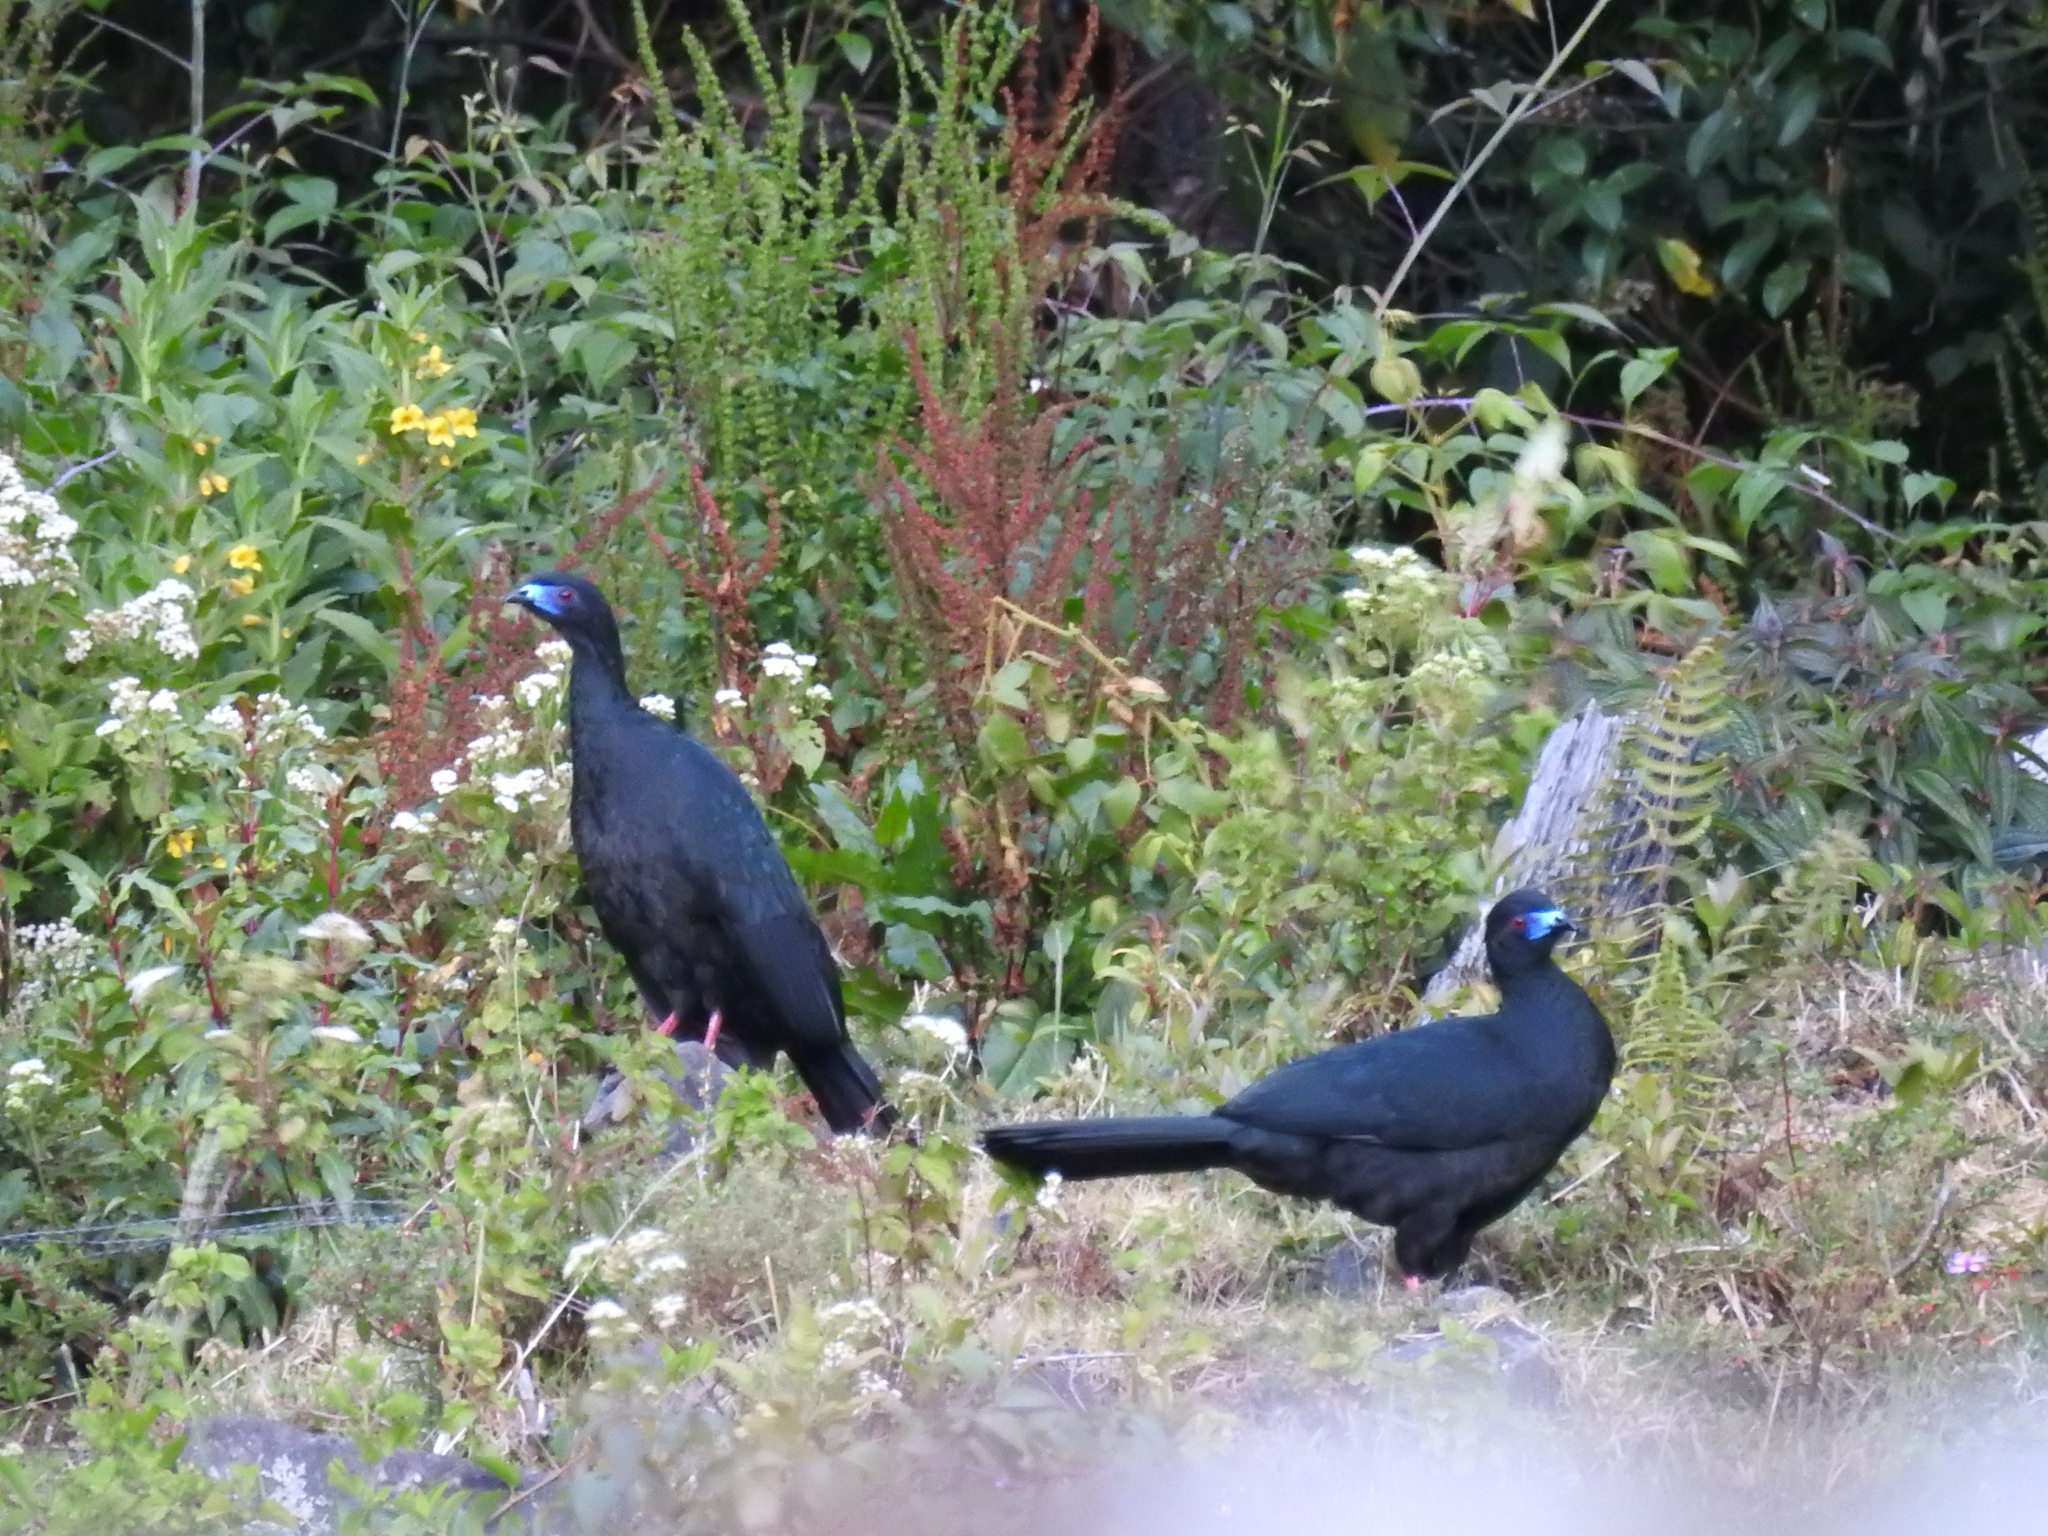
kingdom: Animalia
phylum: Chordata
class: Aves
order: Galliformes
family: Cracidae
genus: Chamaepetes
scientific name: Chamaepetes unicolor
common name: Black guan
